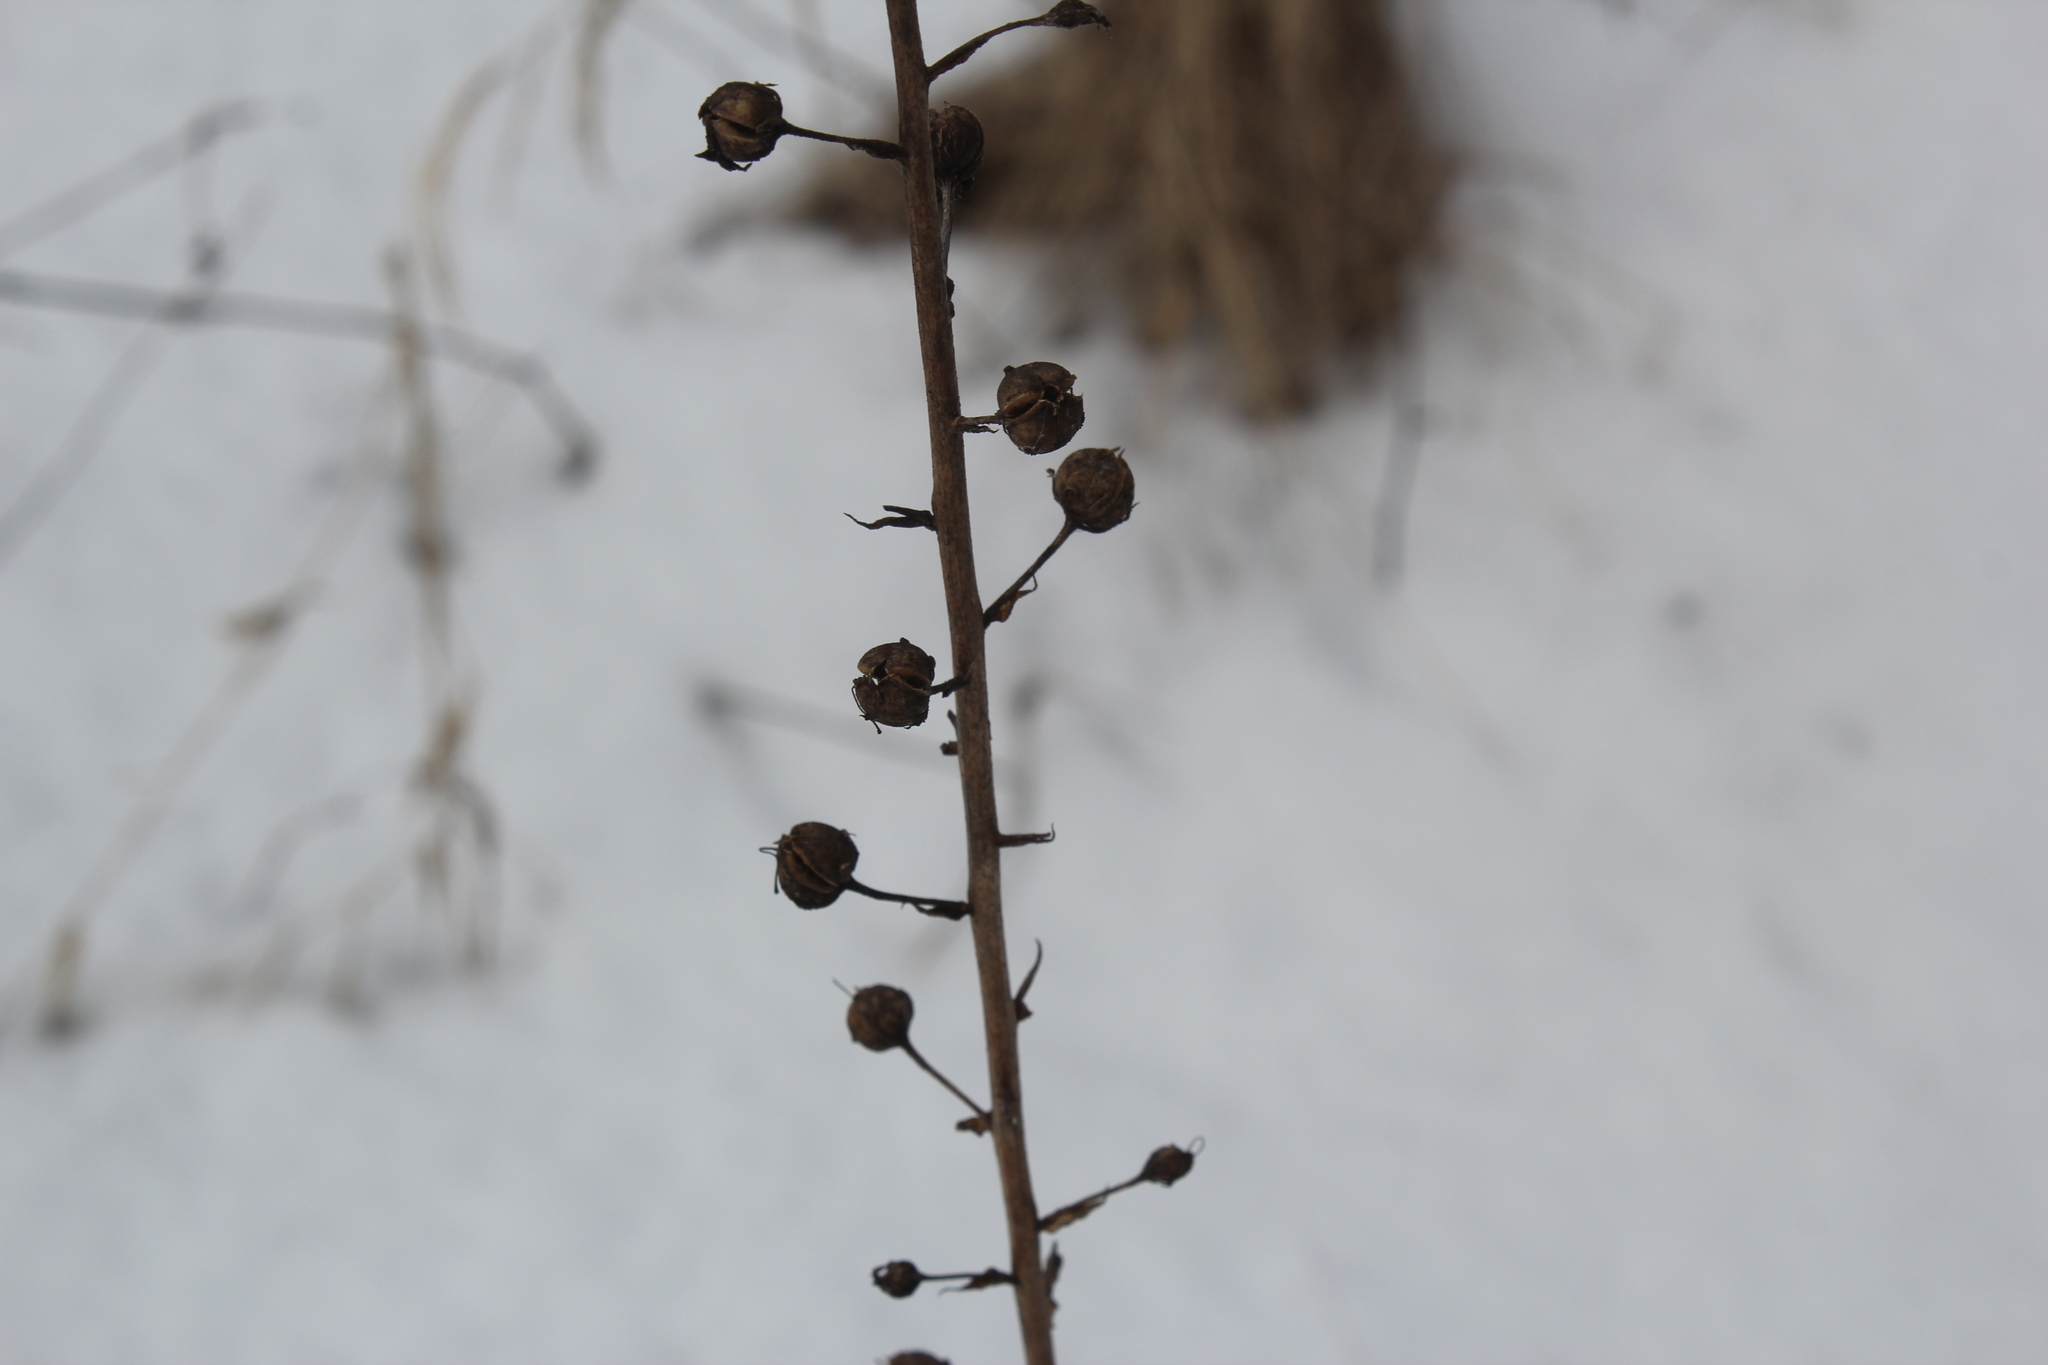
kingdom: Plantae
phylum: Tracheophyta
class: Magnoliopsida
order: Lamiales
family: Scrophulariaceae
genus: Verbascum
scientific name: Verbascum blattaria
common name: Moth mullein
